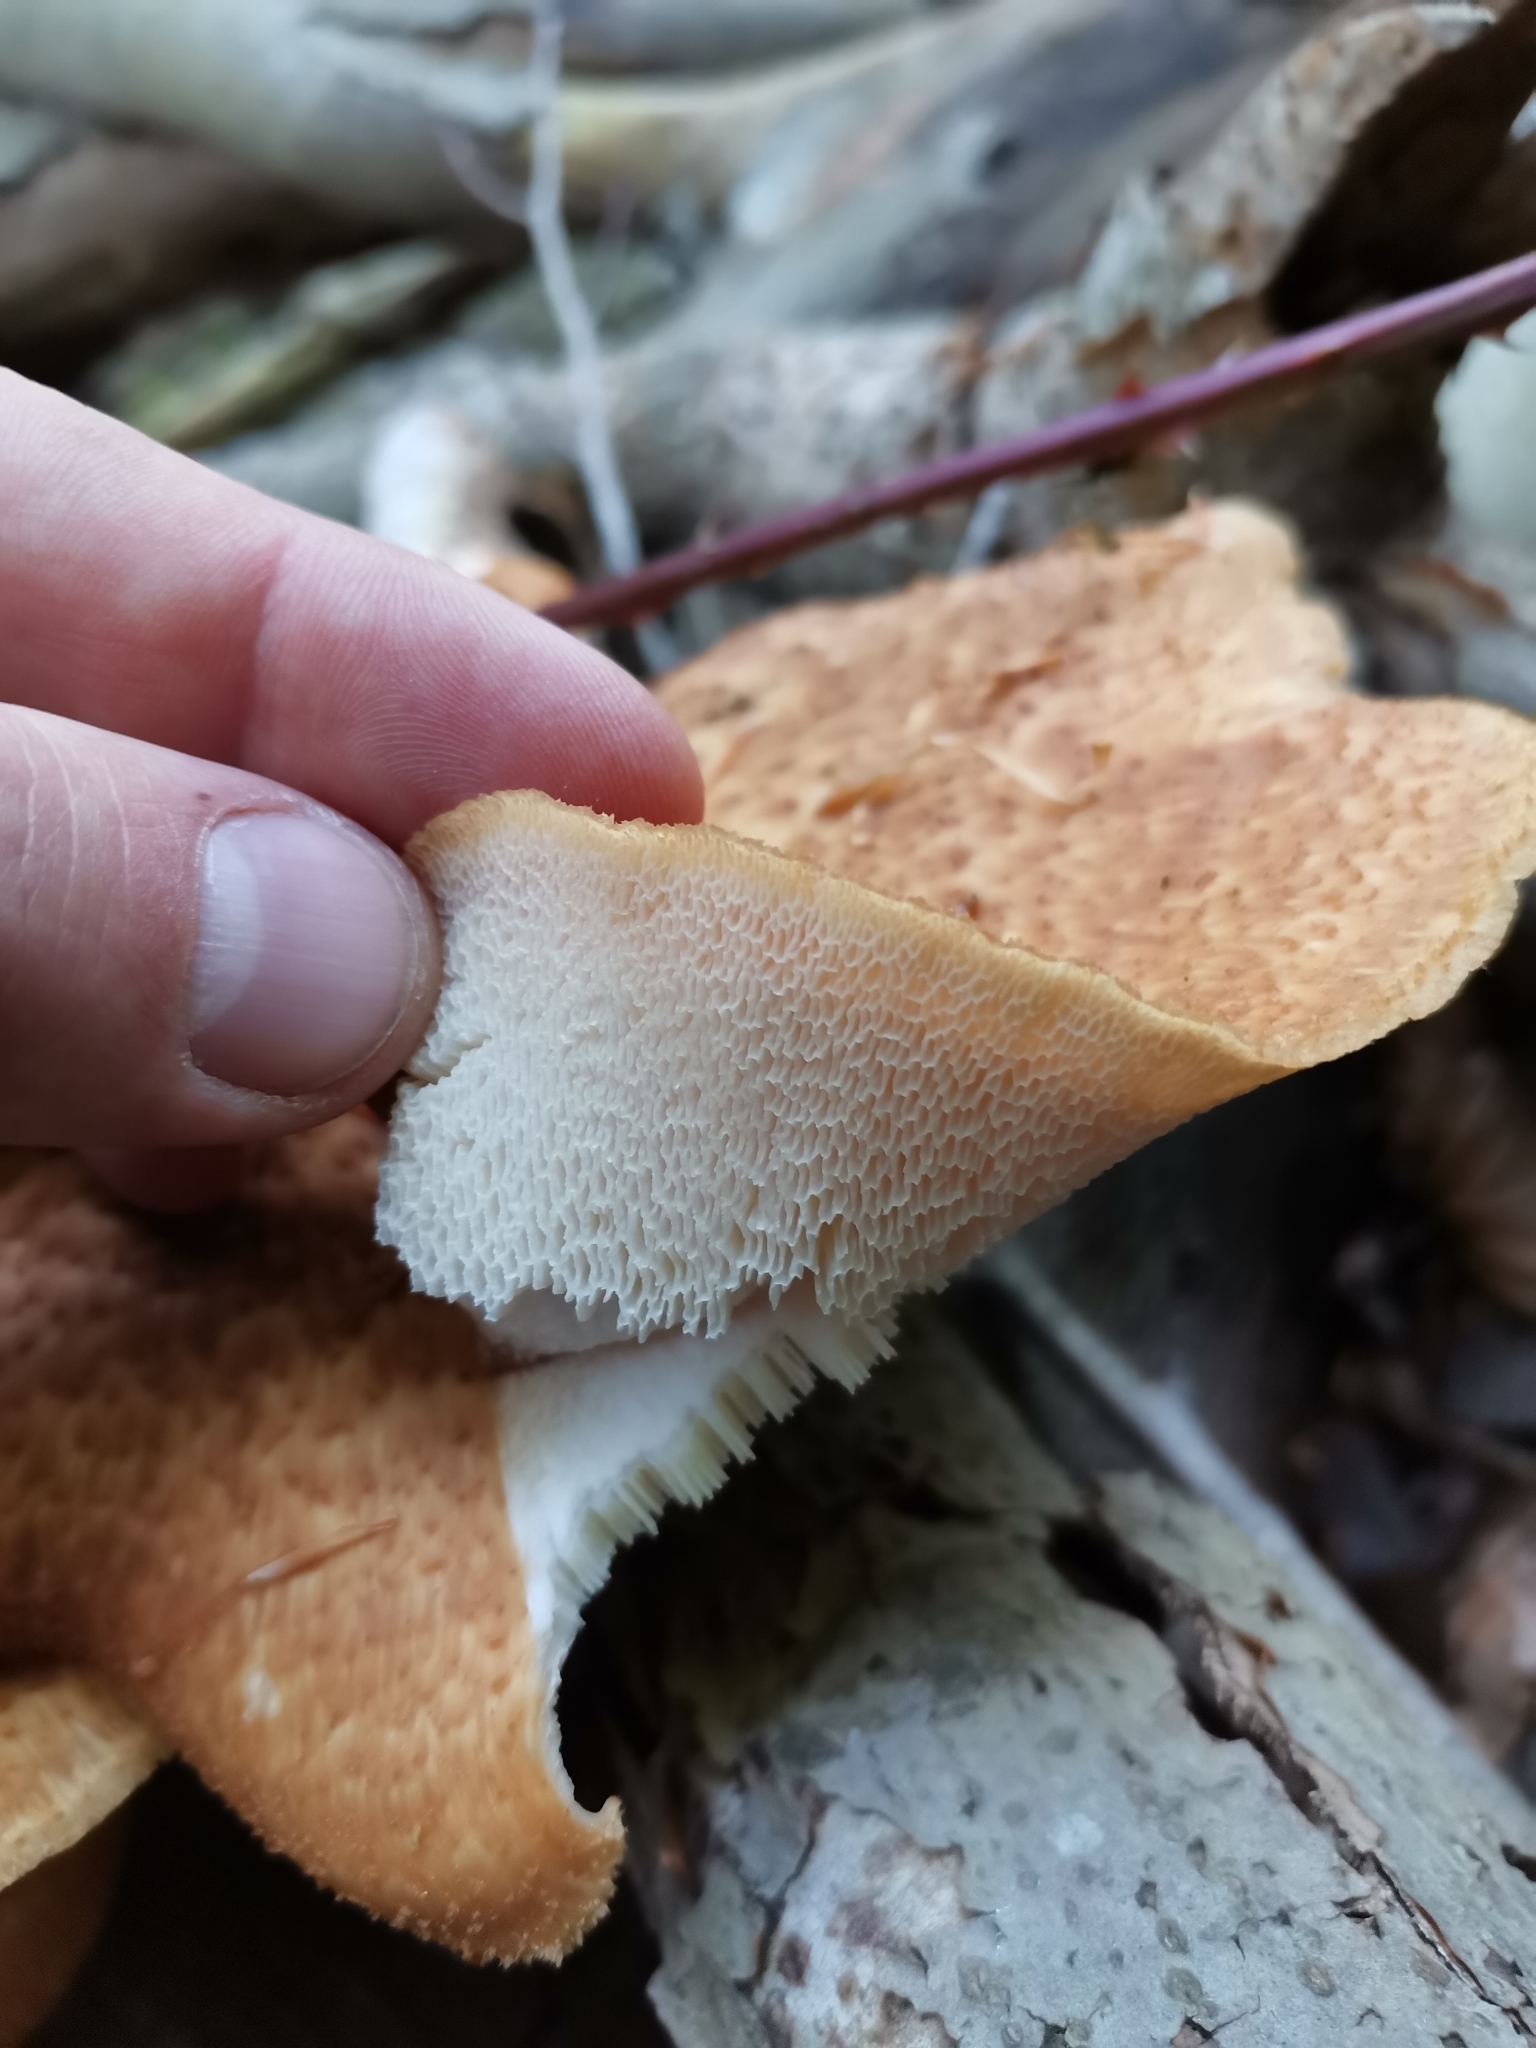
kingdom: Fungi
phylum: Basidiomycota
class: Agaricomycetes
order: Polyporales
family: Polyporaceae
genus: Cerioporus
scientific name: Cerioporus squamosus
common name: Dryad's saddle
